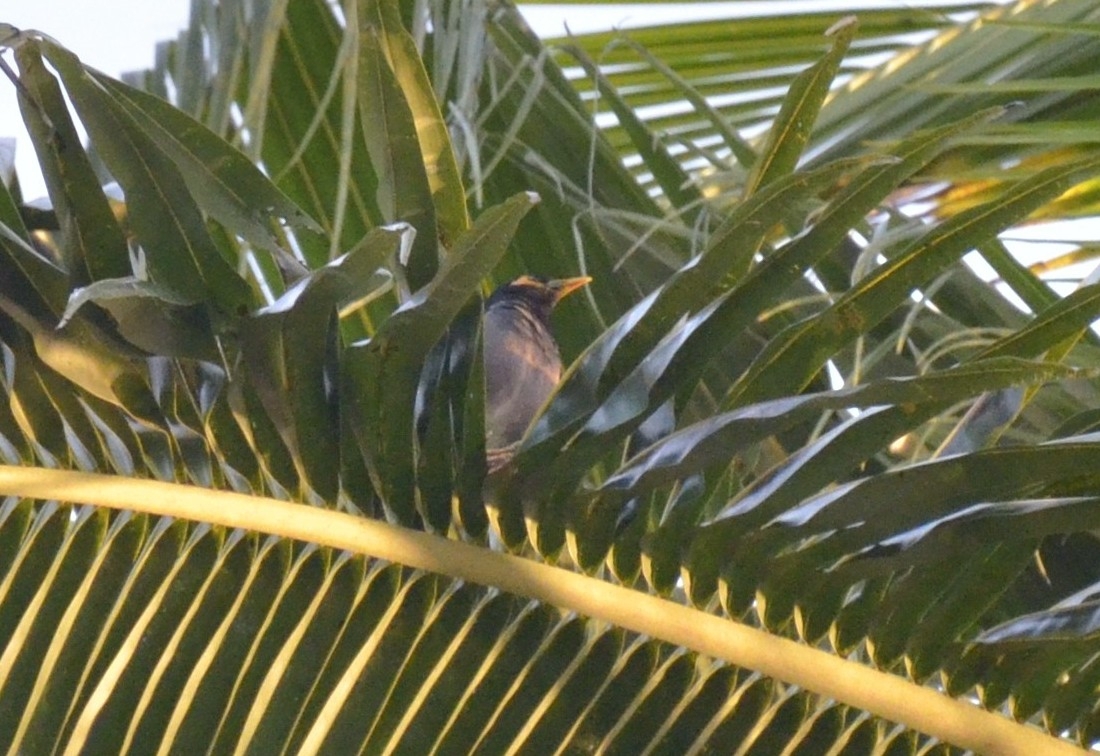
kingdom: Animalia
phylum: Chordata
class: Aves
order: Passeriformes
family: Sturnidae
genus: Acridotheres
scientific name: Acridotheres tristis
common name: Common myna
